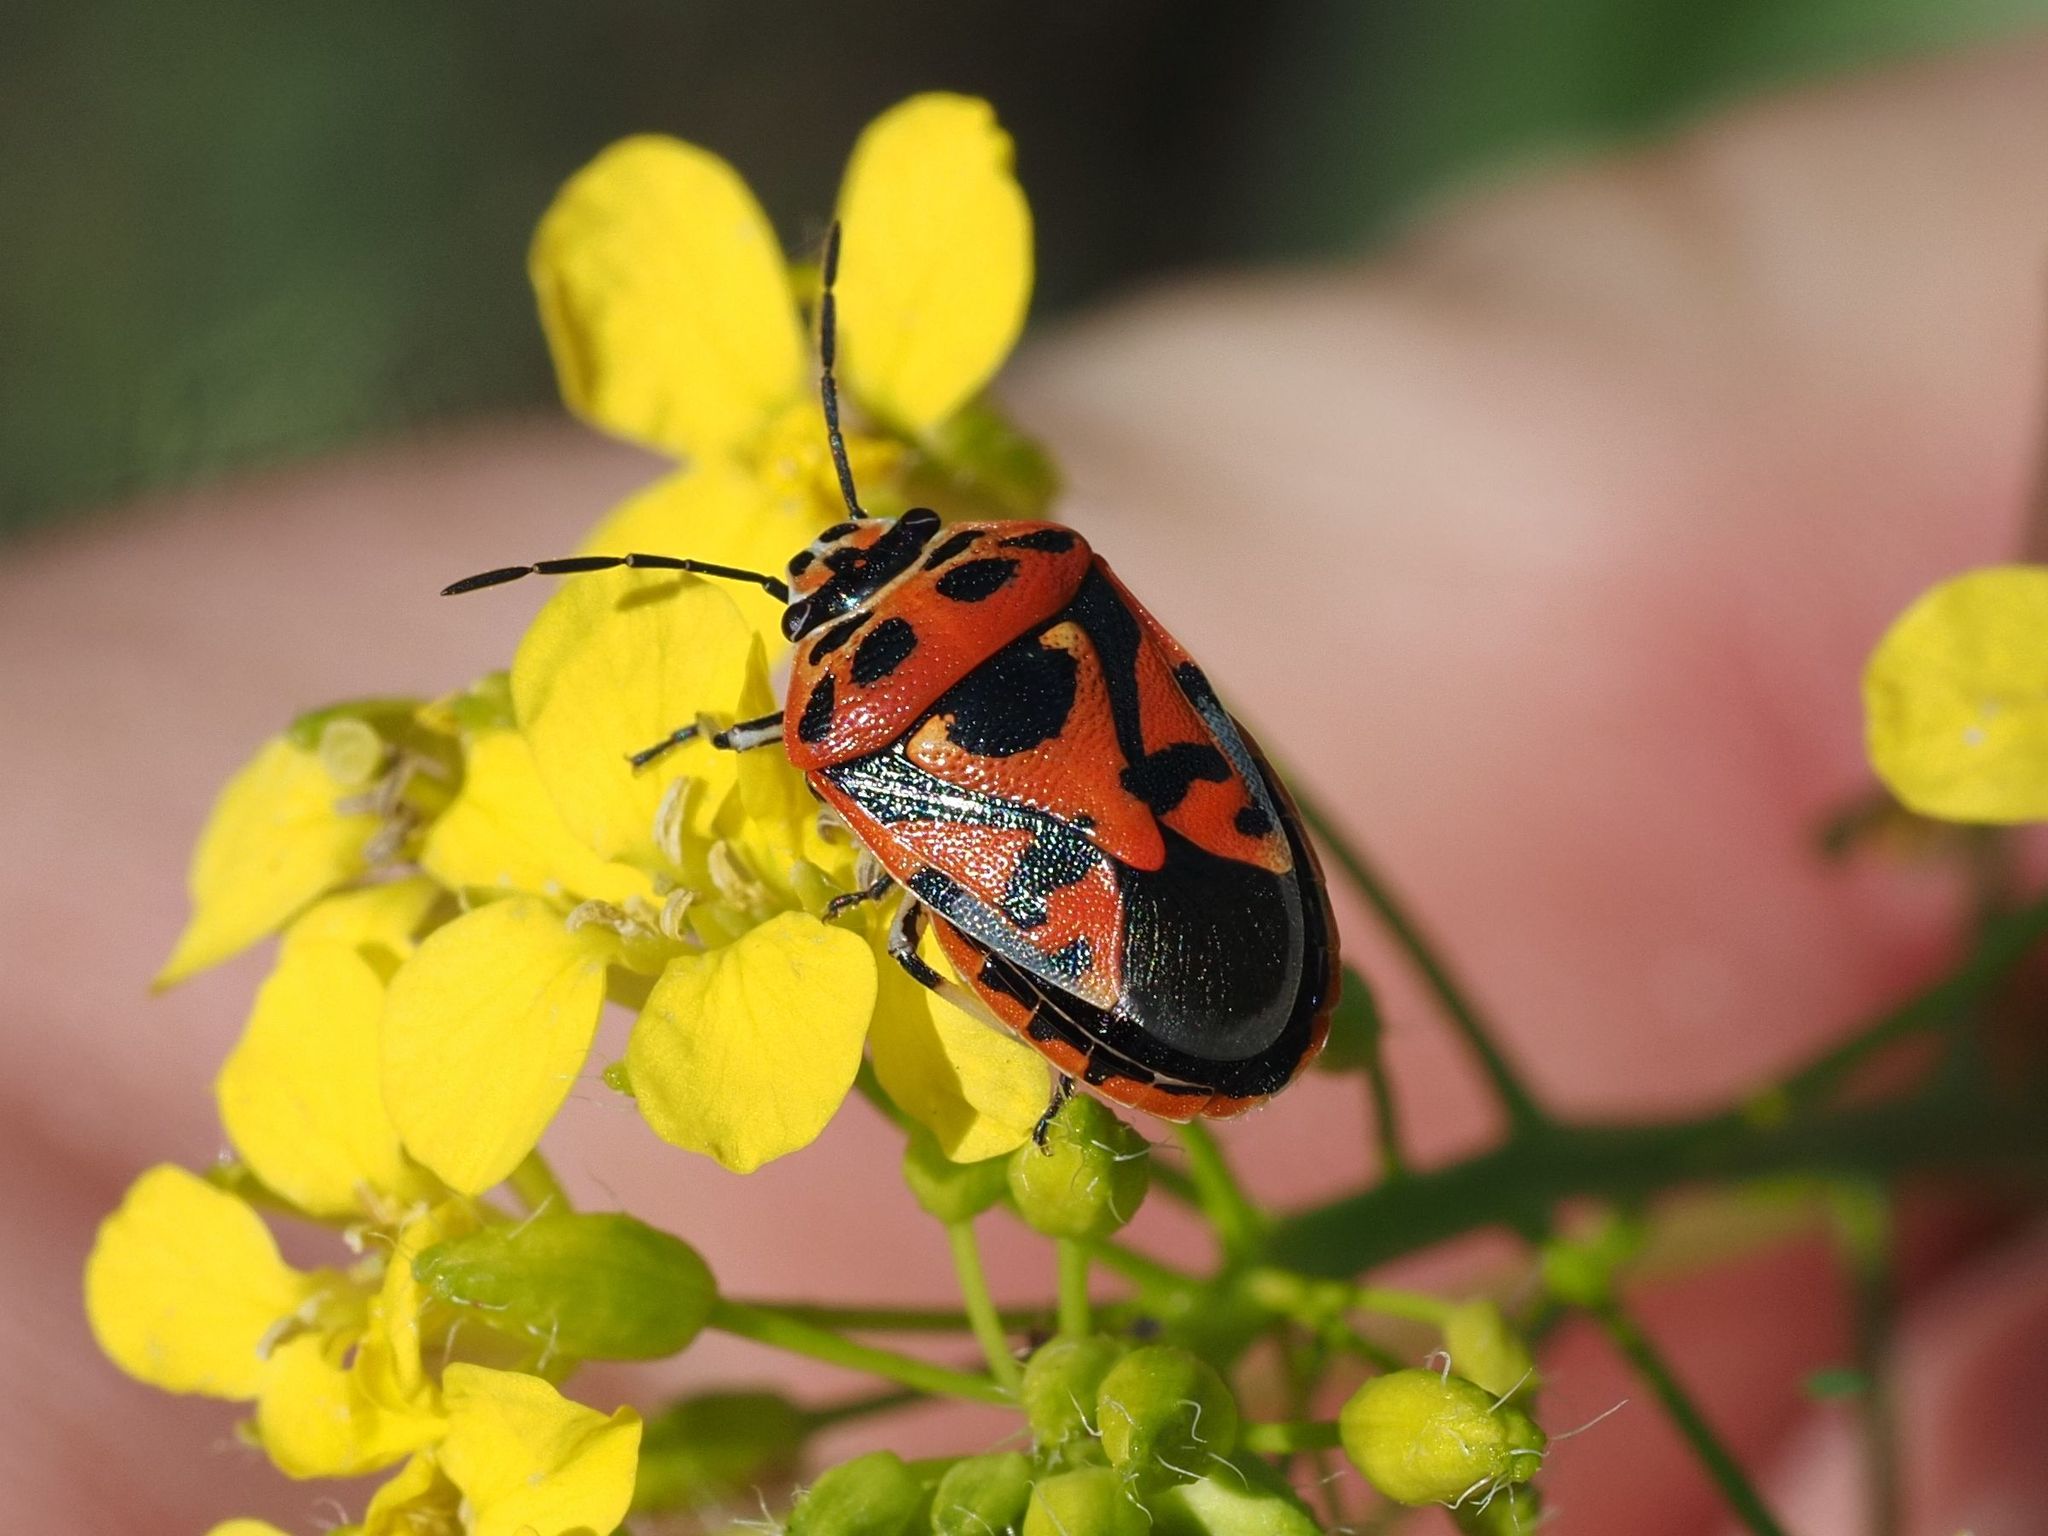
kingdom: Animalia
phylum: Arthropoda
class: Insecta
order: Hemiptera
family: Pentatomidae
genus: Eurydema
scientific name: Eurydema ornata
